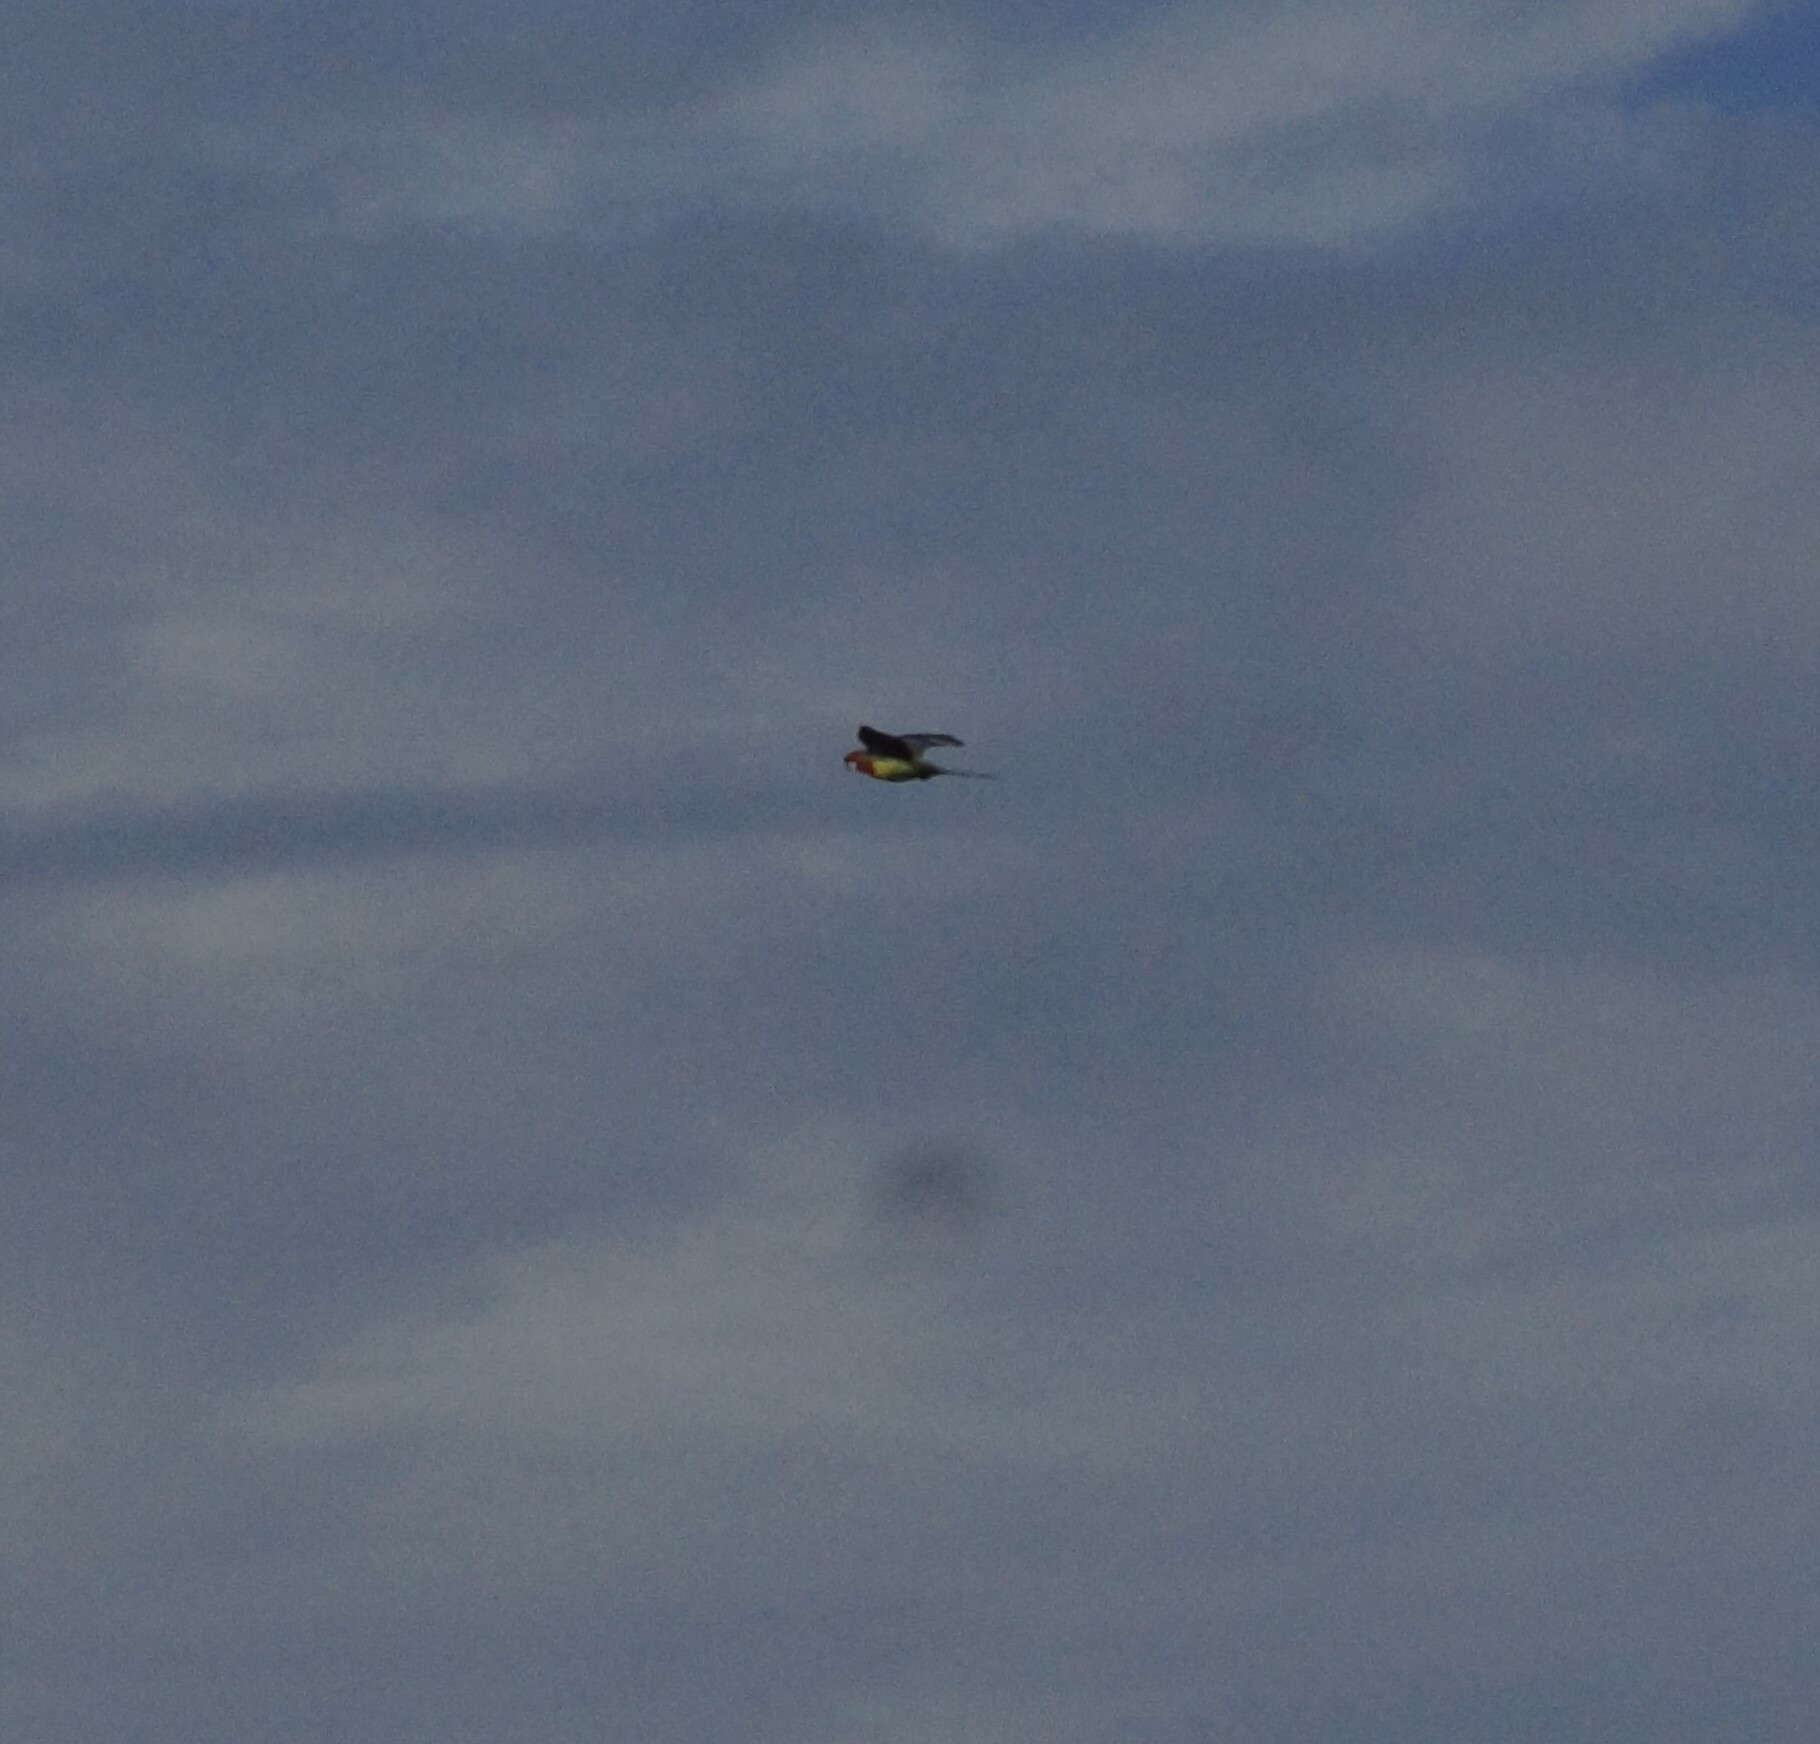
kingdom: Animalia
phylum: Chordata
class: Aves
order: Psittaciformes
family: Psittacidae
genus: Platycercus
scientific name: Platycercus eximius
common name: Eastern rosella
